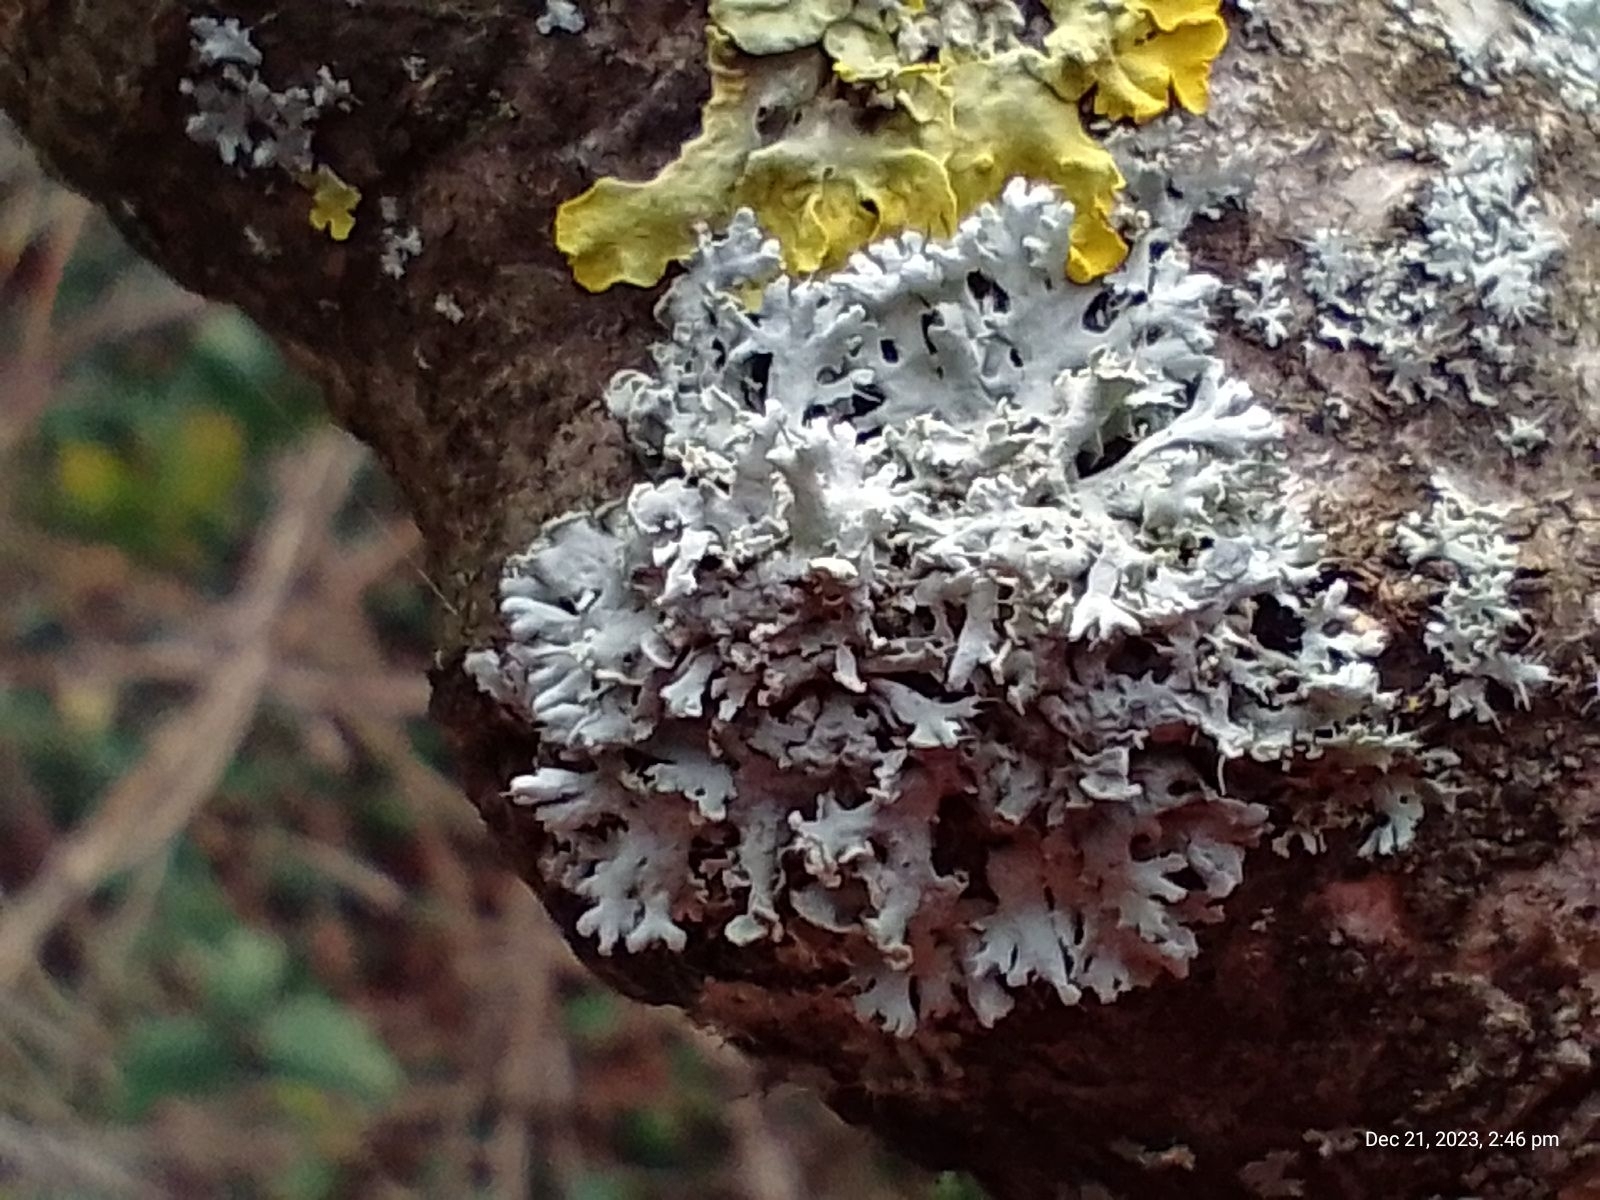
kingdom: Fungi
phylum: Ascomycota
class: Lecanoromycetes
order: Caliciales
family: Physciaceae
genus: Physcia
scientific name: Physcia tenella
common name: Fringed rosette lichen
